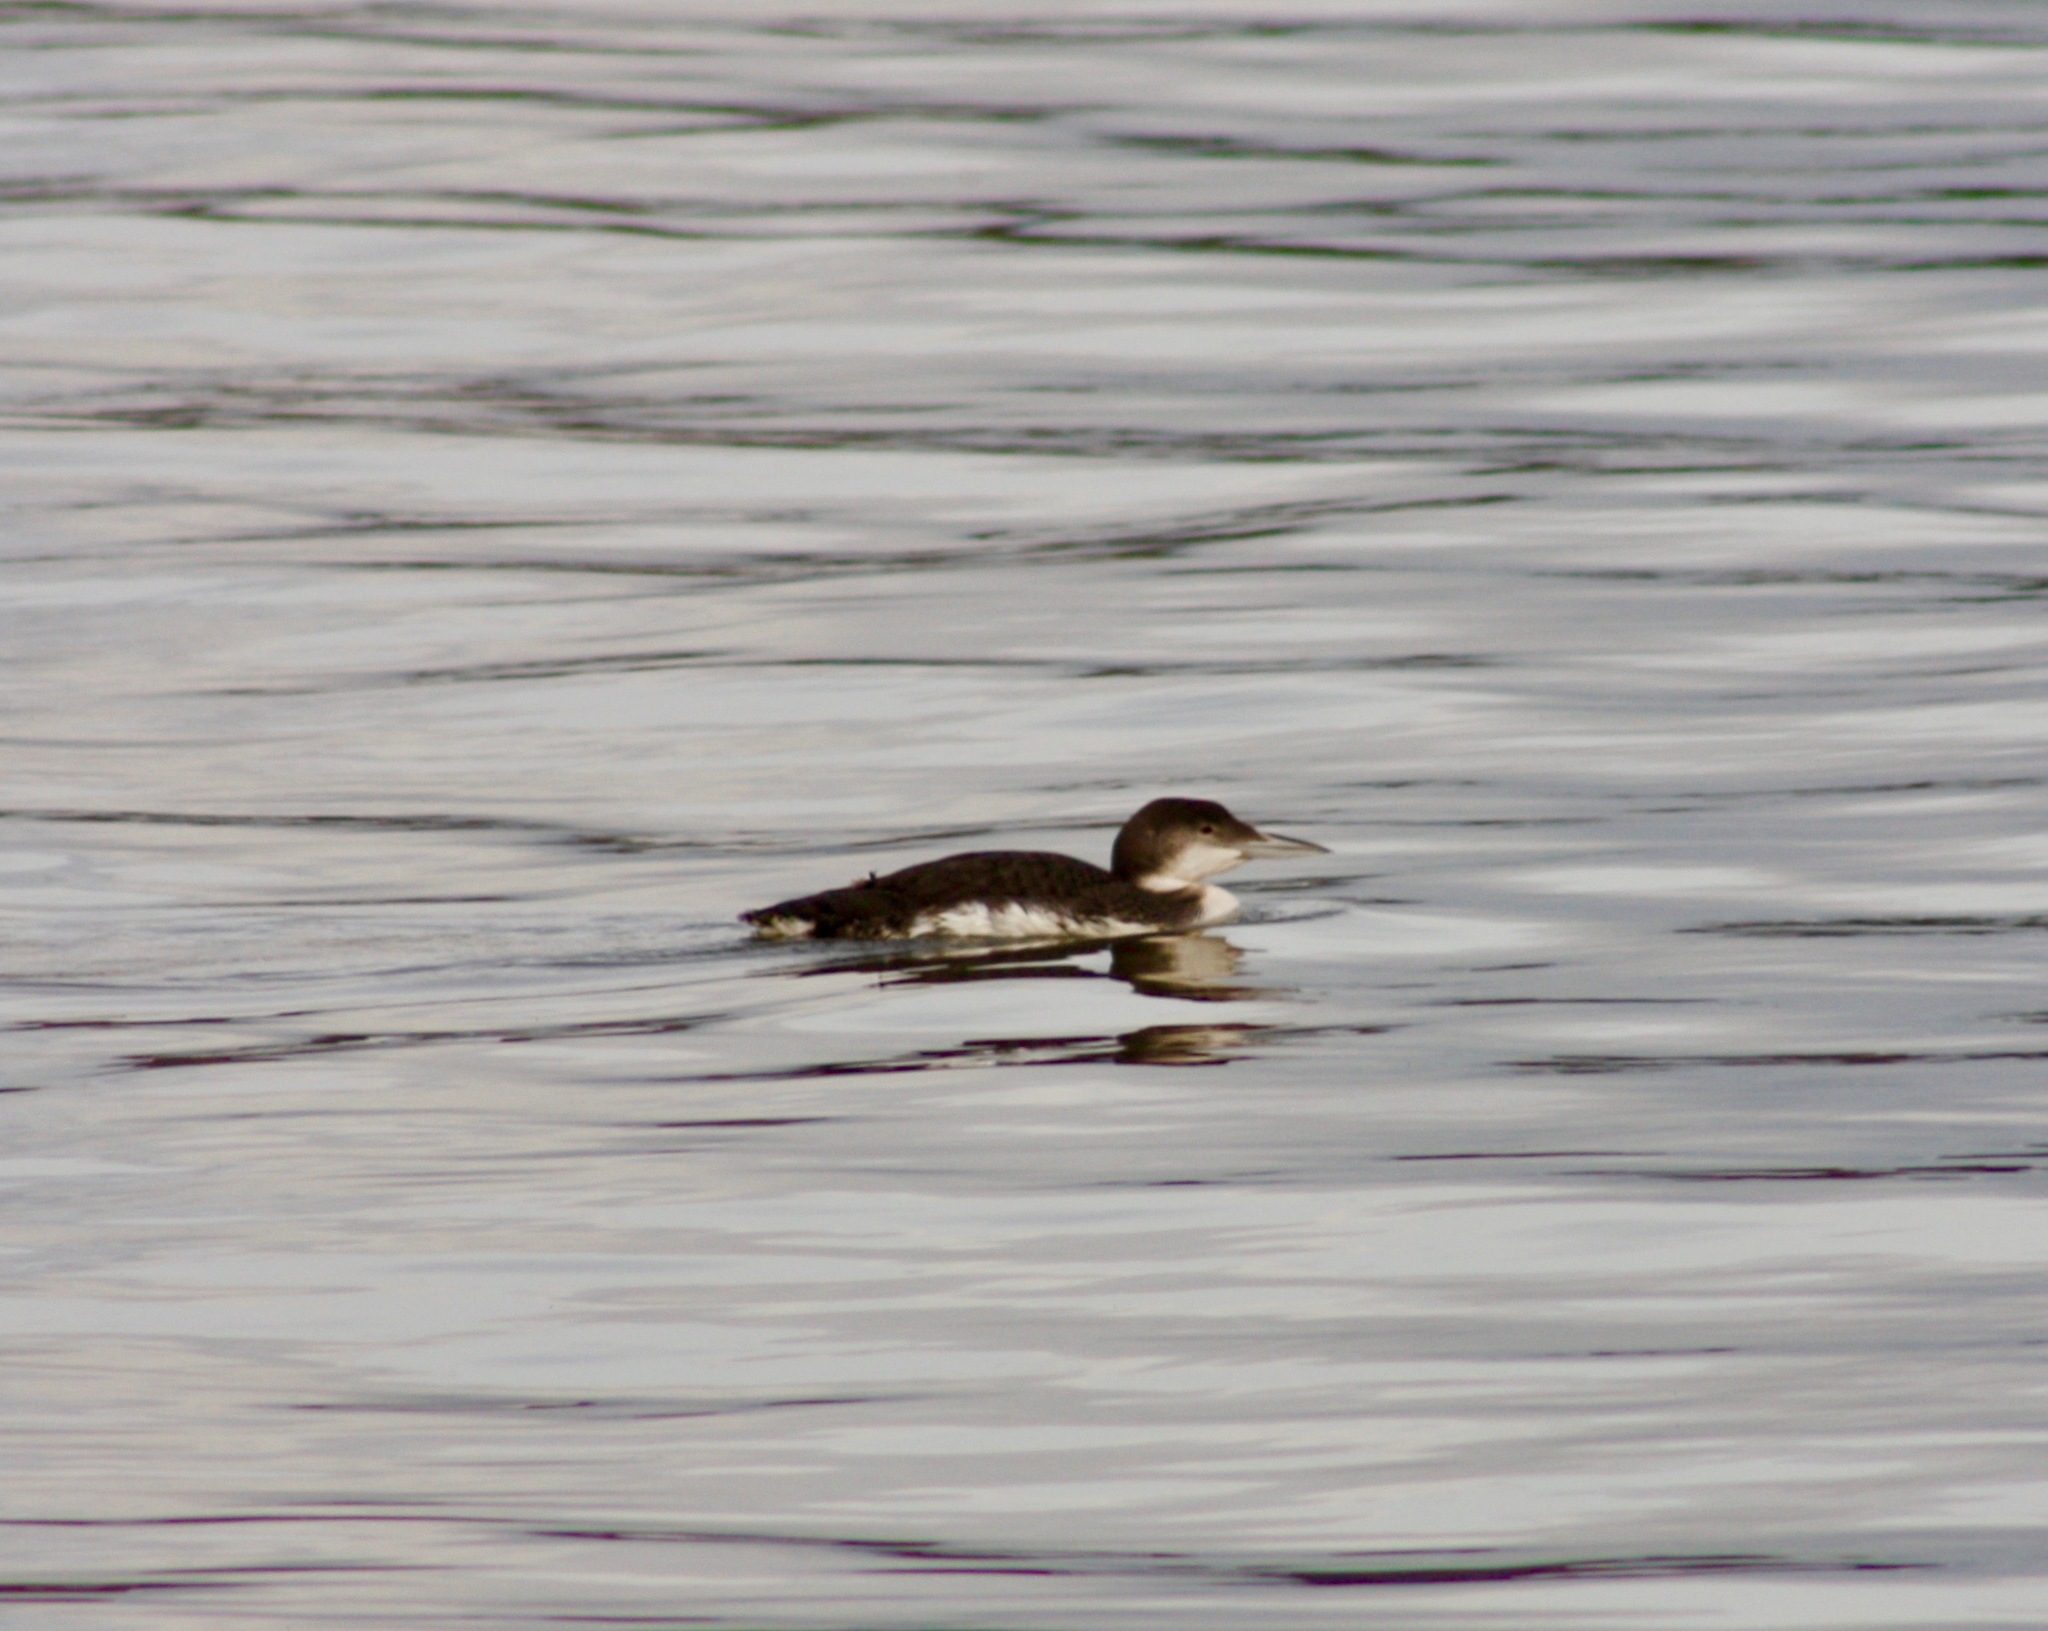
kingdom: Animalia
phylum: Chordata
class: Aves
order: Gaviiformes
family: Gaviidae
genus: Gavia
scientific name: Gavia immer
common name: Common loon
